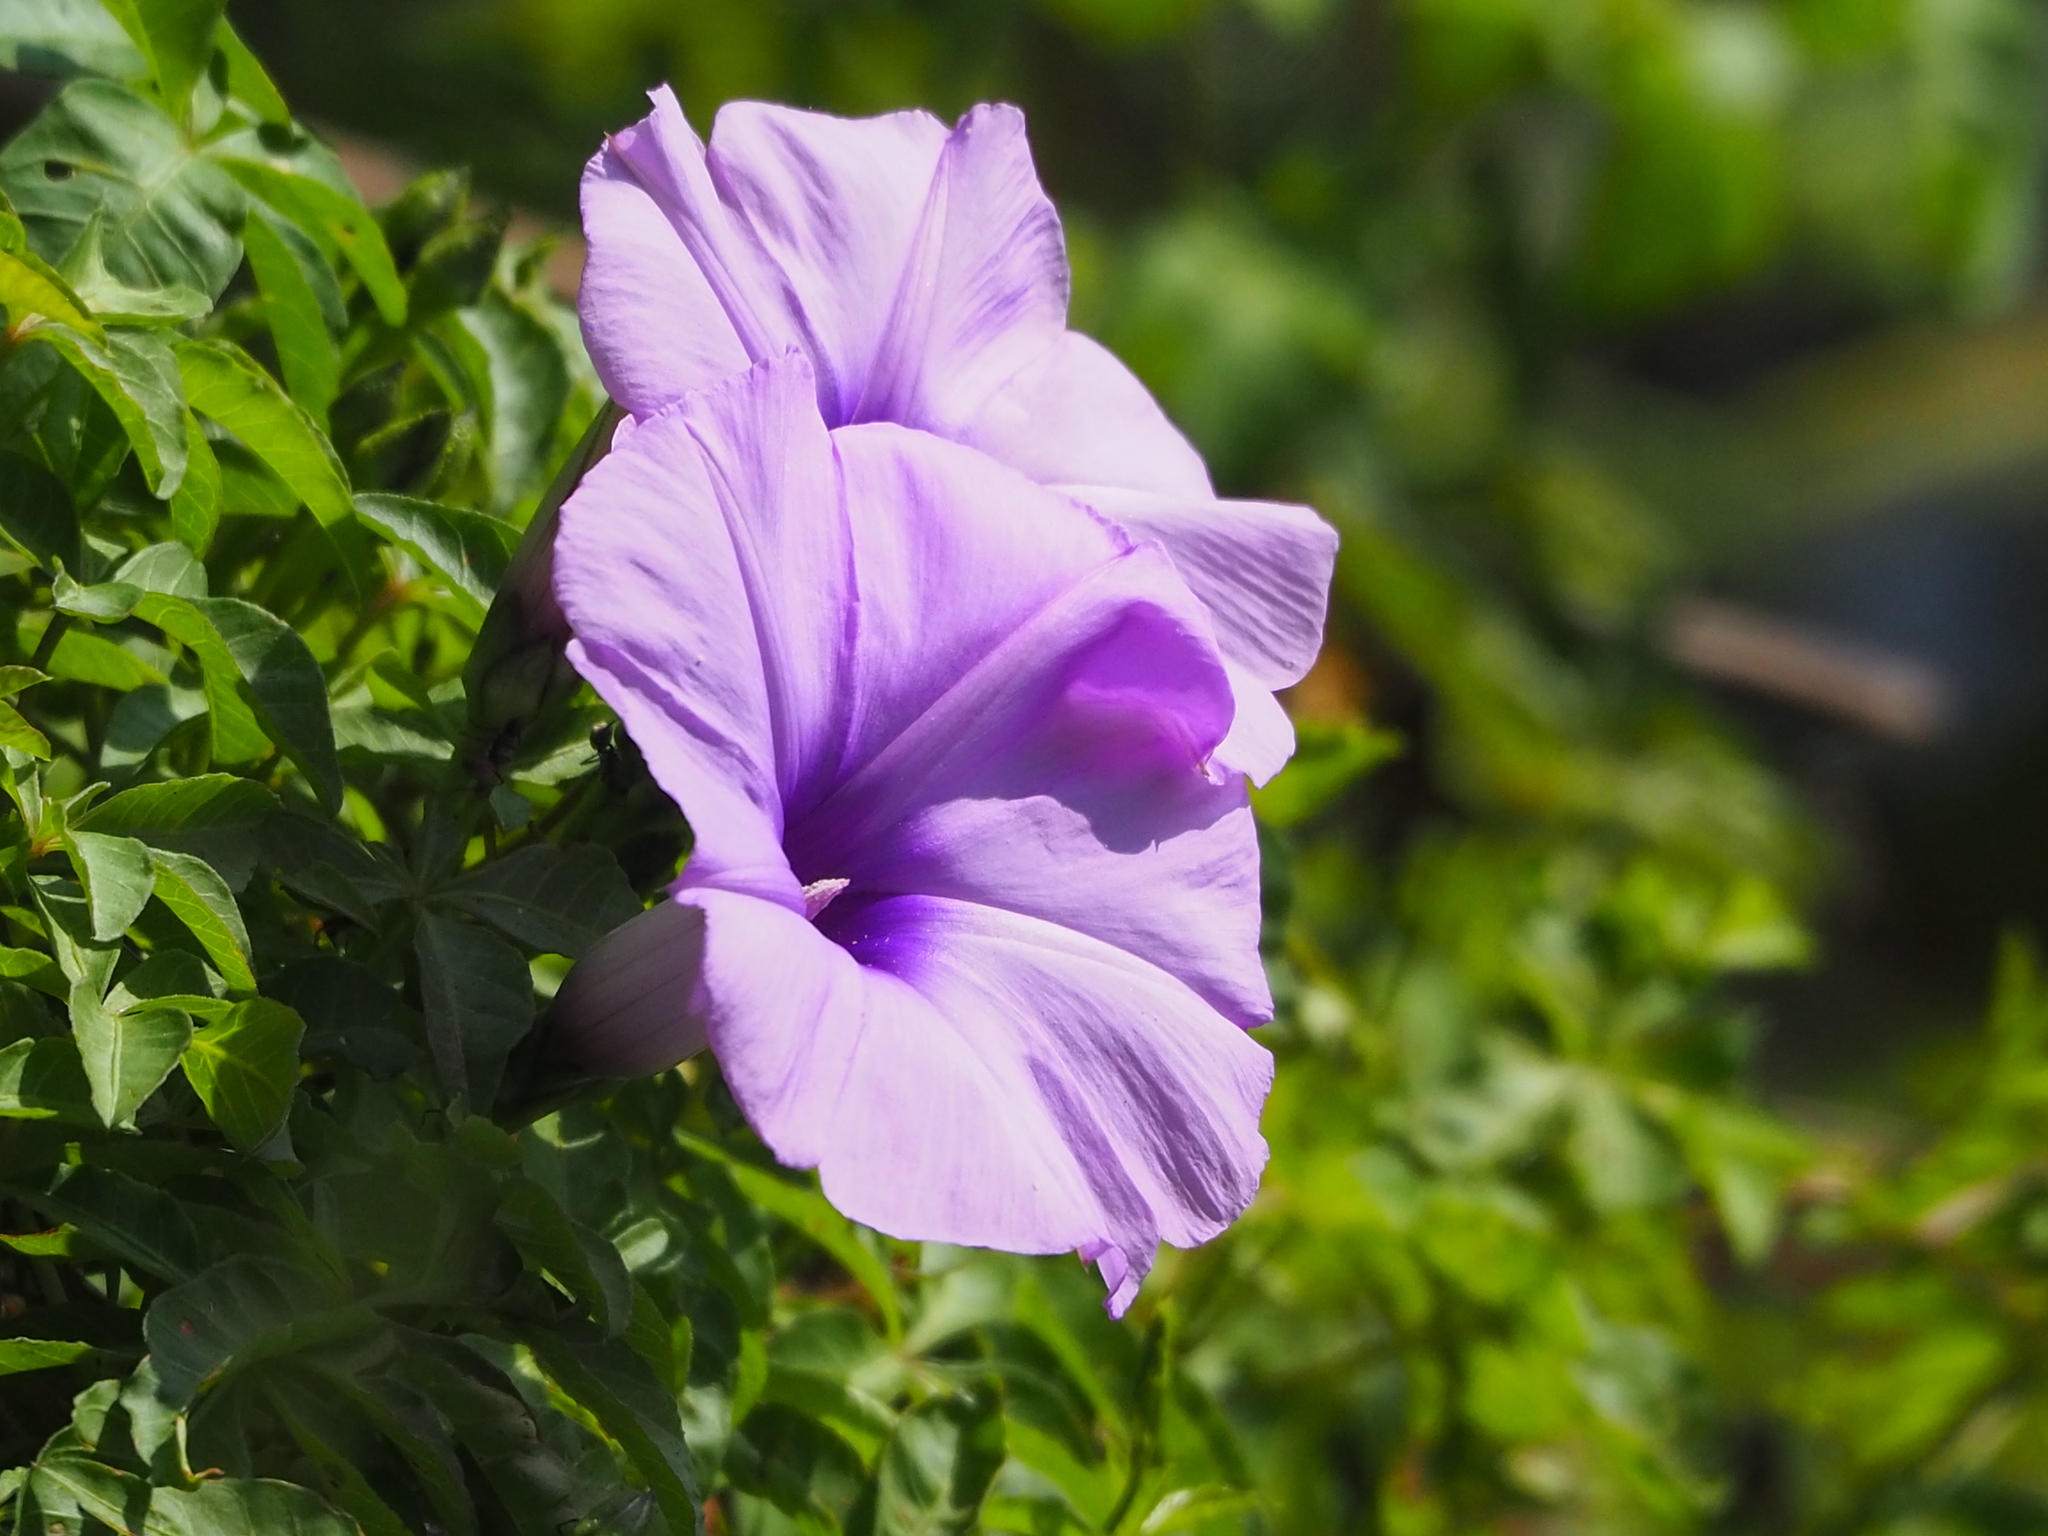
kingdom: Plantae
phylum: Tracheophyta
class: Magnoliopsida
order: Solanales
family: Convolvulaceae
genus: Ipomoea
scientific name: Ipomoea cairica
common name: Mile a minute vine
